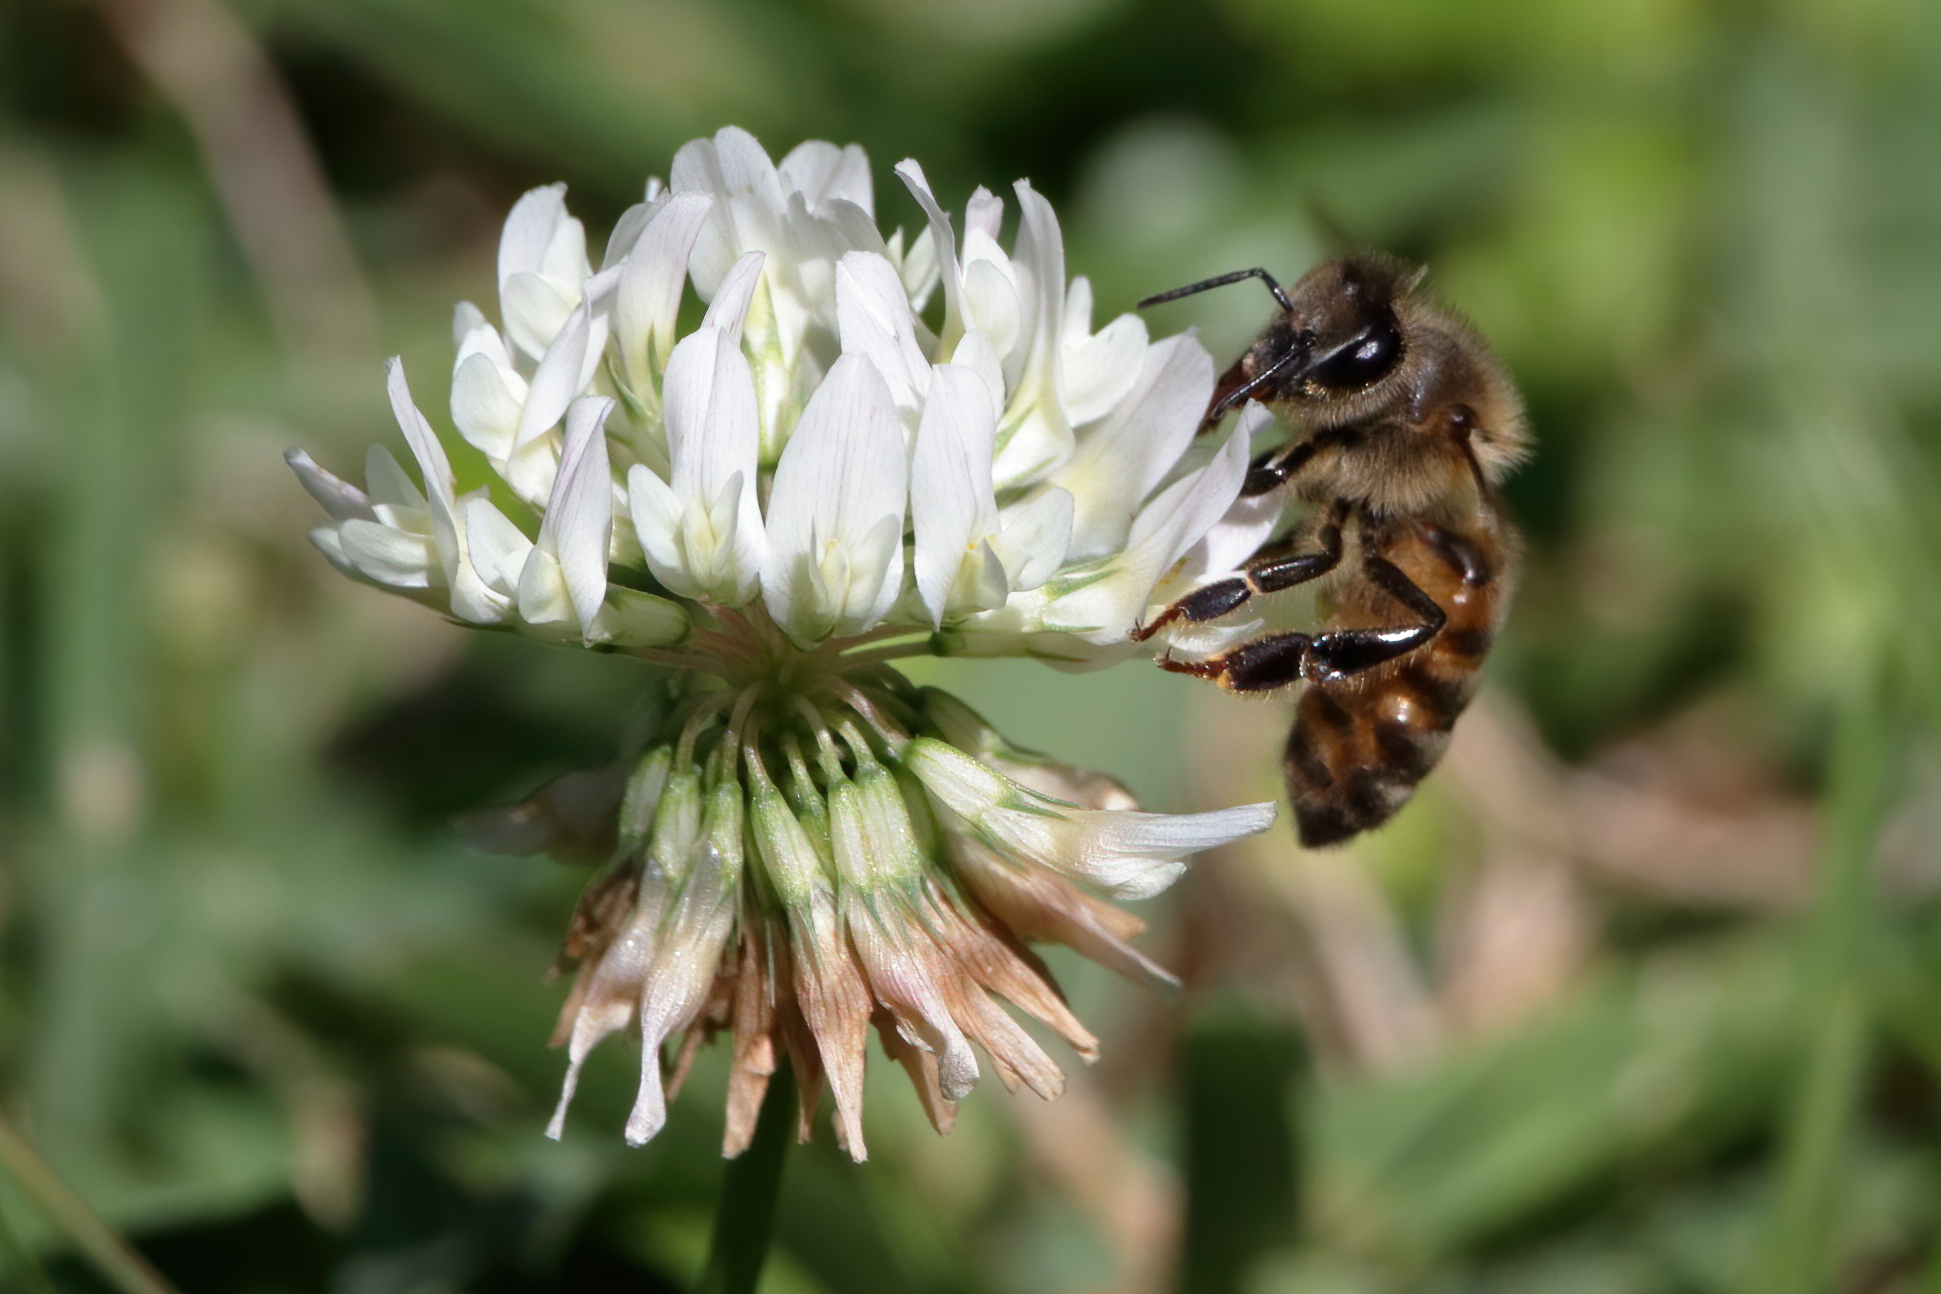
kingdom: Animalia
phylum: Arthropoda
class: Insecta
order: Hymenoptera
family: Apidae
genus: Apis
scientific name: Apis mellifera
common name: Honey bee
